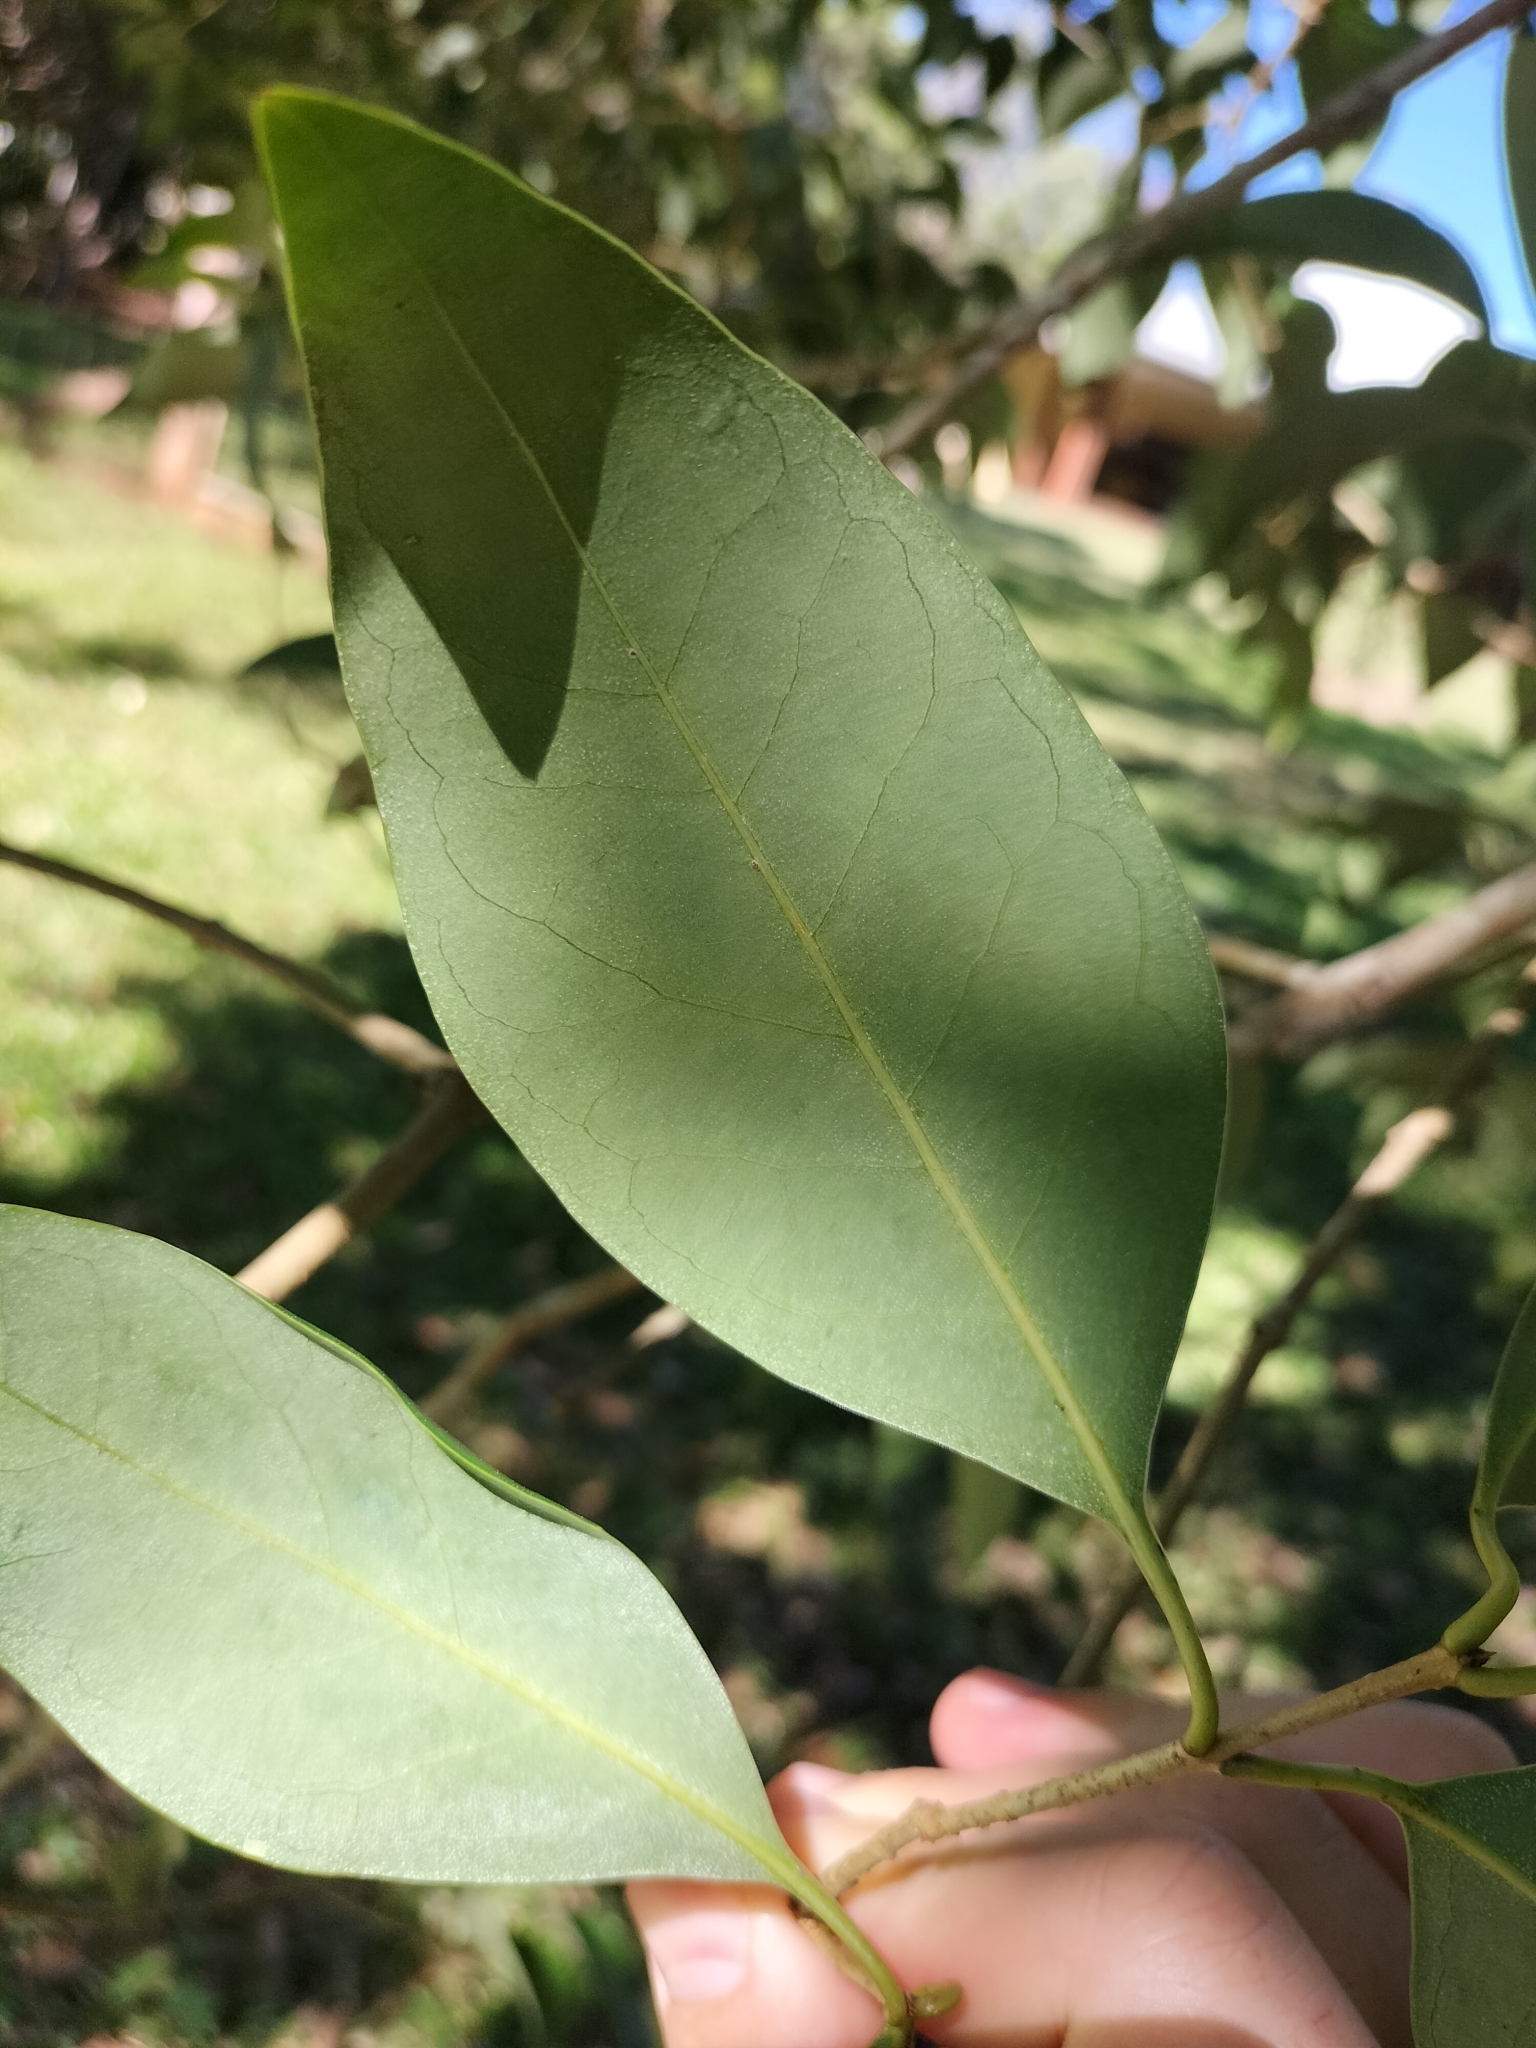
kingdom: Plantae
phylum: Tracheophyta
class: Magnoliopsida
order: Lamiales
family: Oleaceae
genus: Ligustrum
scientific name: Ligustrum lucidum
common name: Glossy privet
